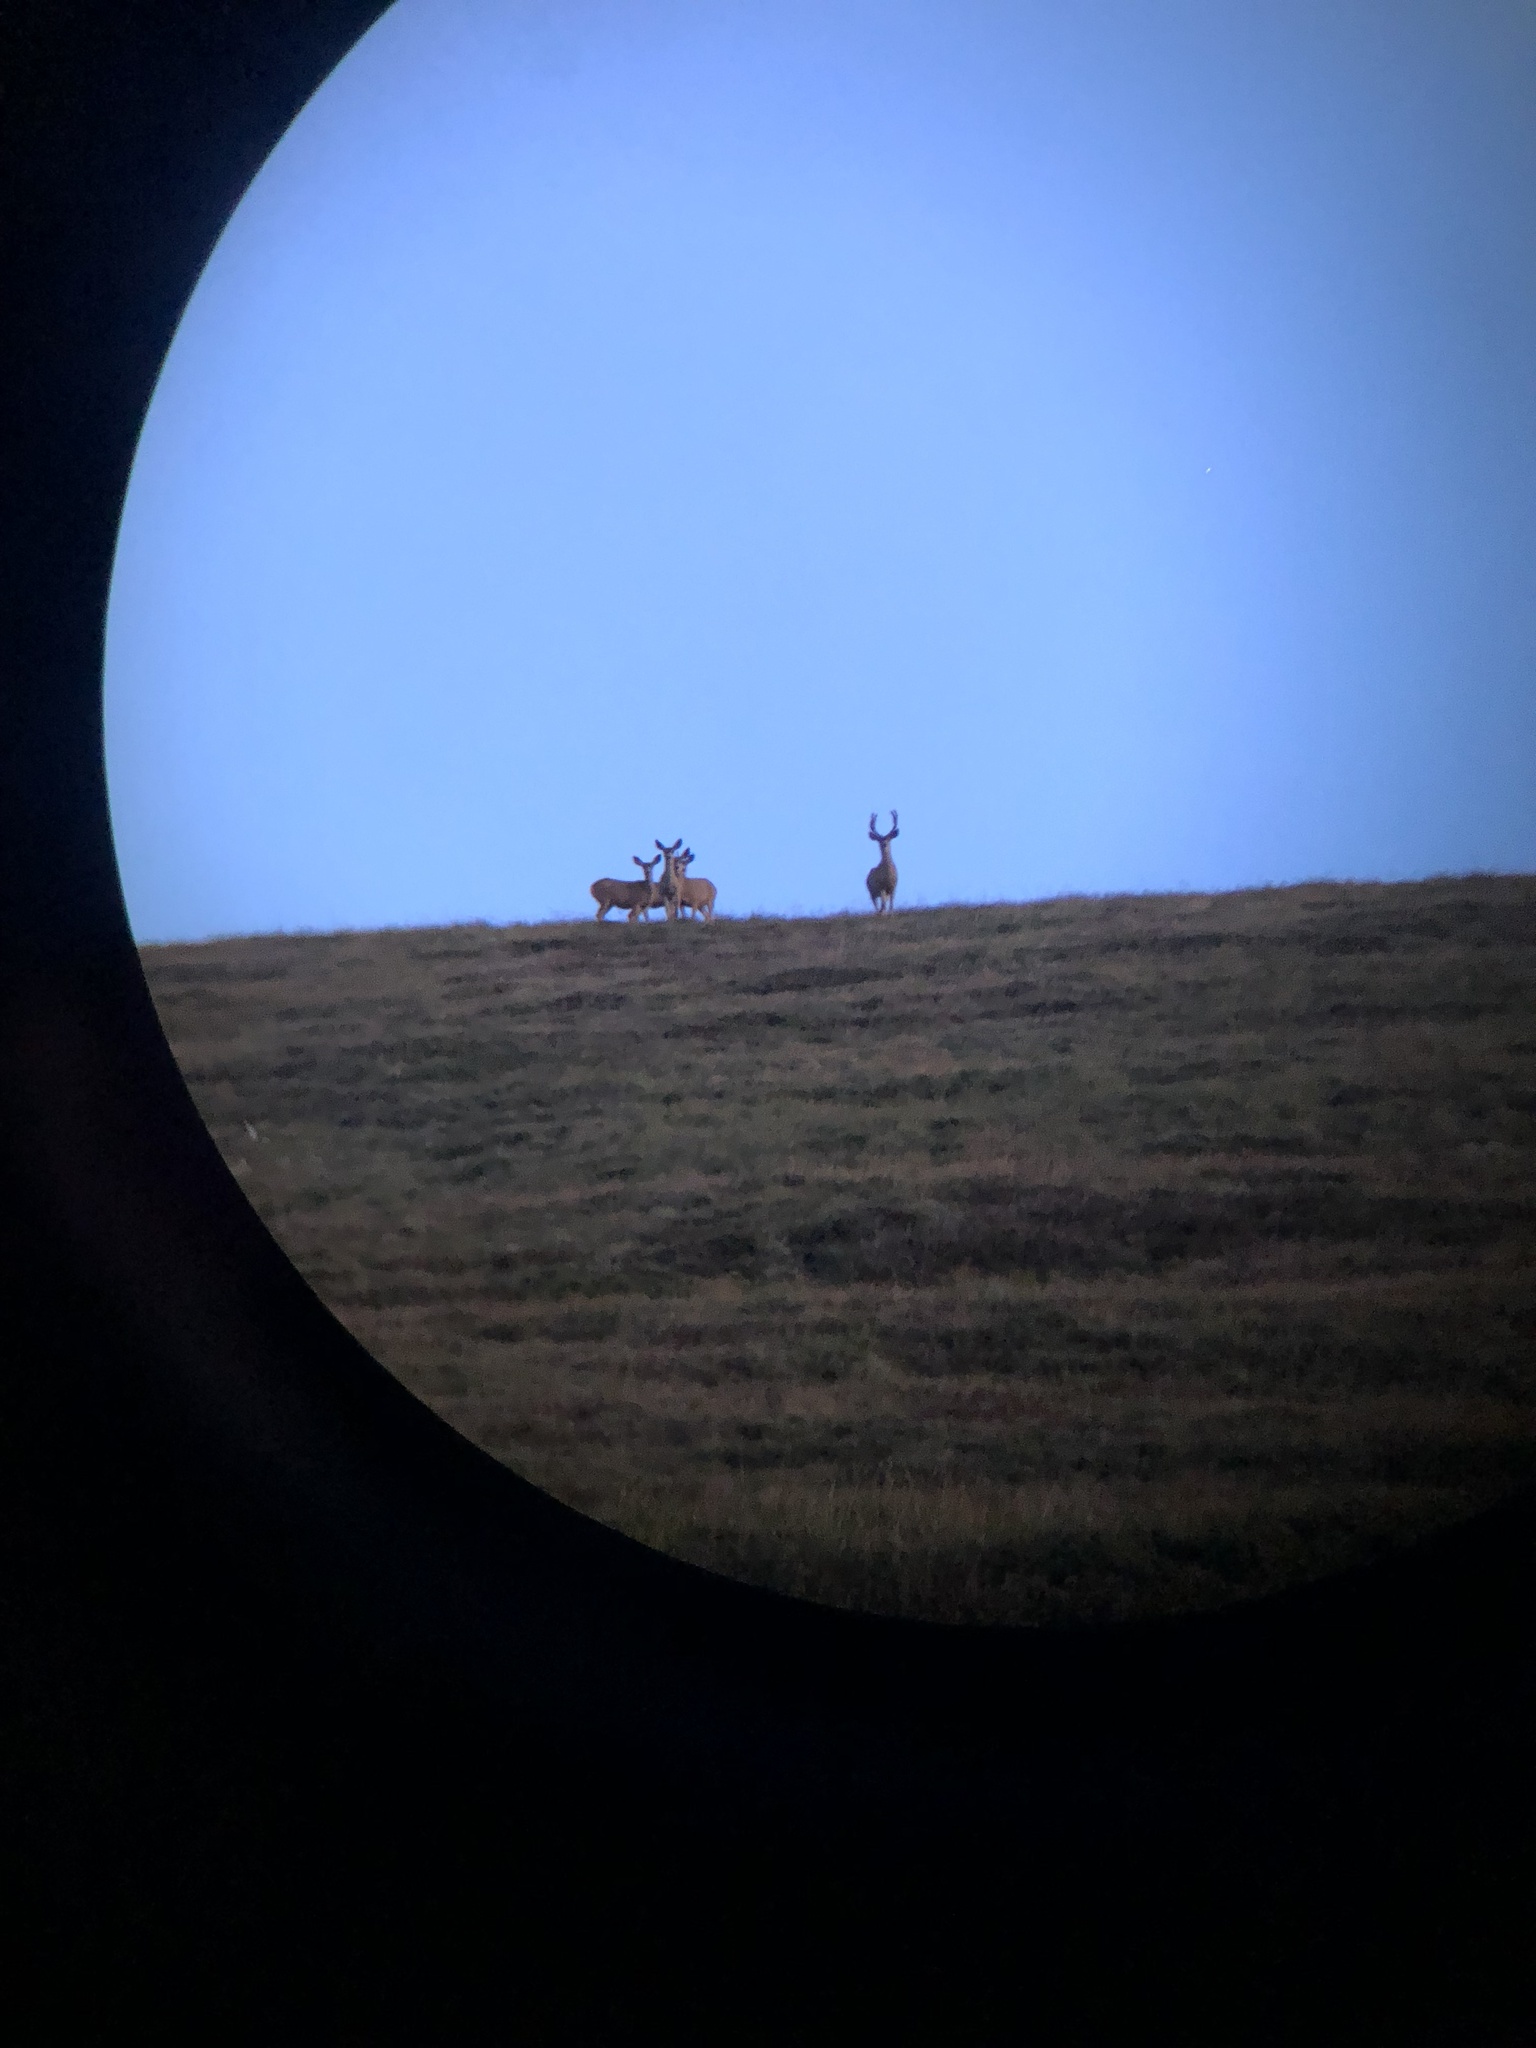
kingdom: Animalia
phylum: Chordata
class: Mammalia
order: Artiodactyla
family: Cervidae
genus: Odocoileus
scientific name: Odocoileus hemionus
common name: Mule deer
